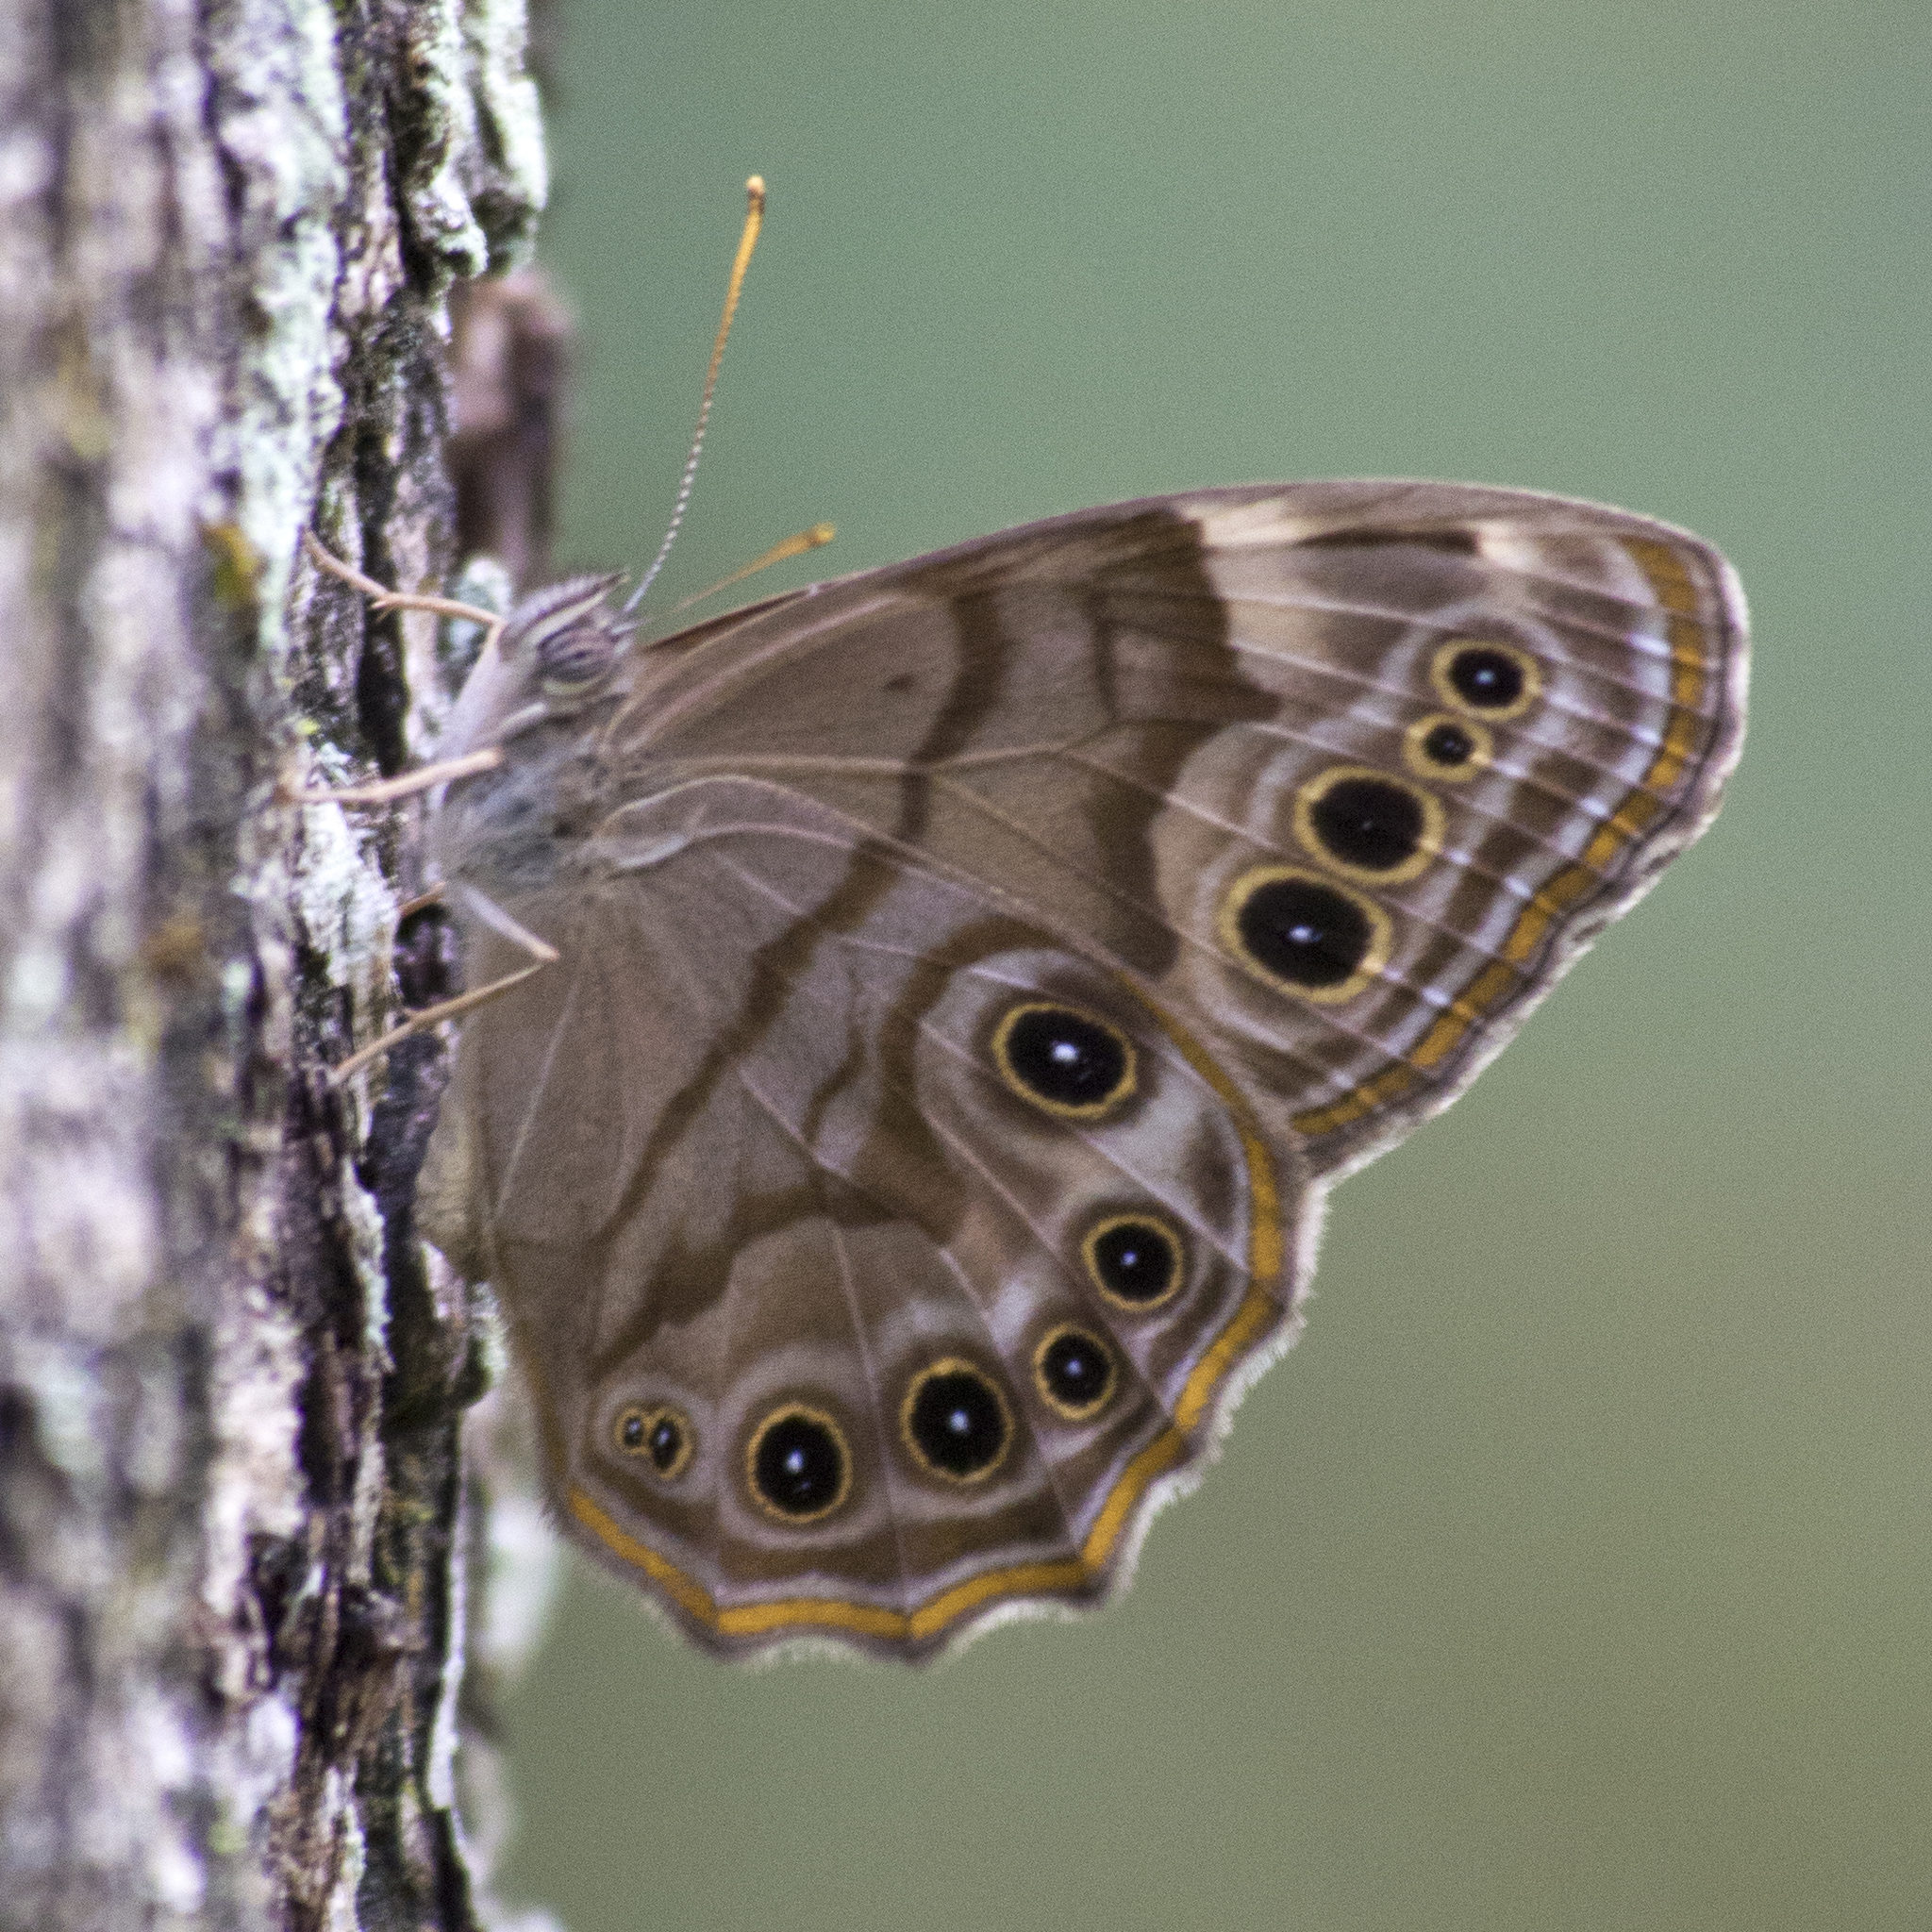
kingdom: Animalia
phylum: Arthropoda
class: Insecta
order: Lepidoptera
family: Nymphalidae
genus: Lethe
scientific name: Lethe anthedon
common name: Northern pearly-eye
